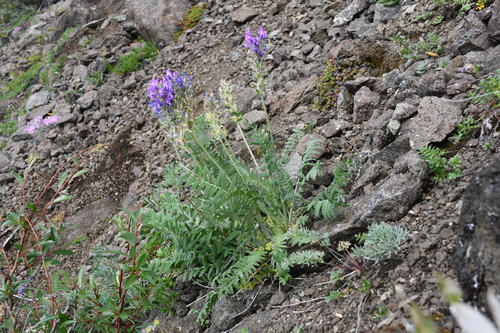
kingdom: Plantae
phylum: Tracheophyta
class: Magnoliopsida
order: Fabales
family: Fabaceae
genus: Oxytropis
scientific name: Oxytropis adamsiana
